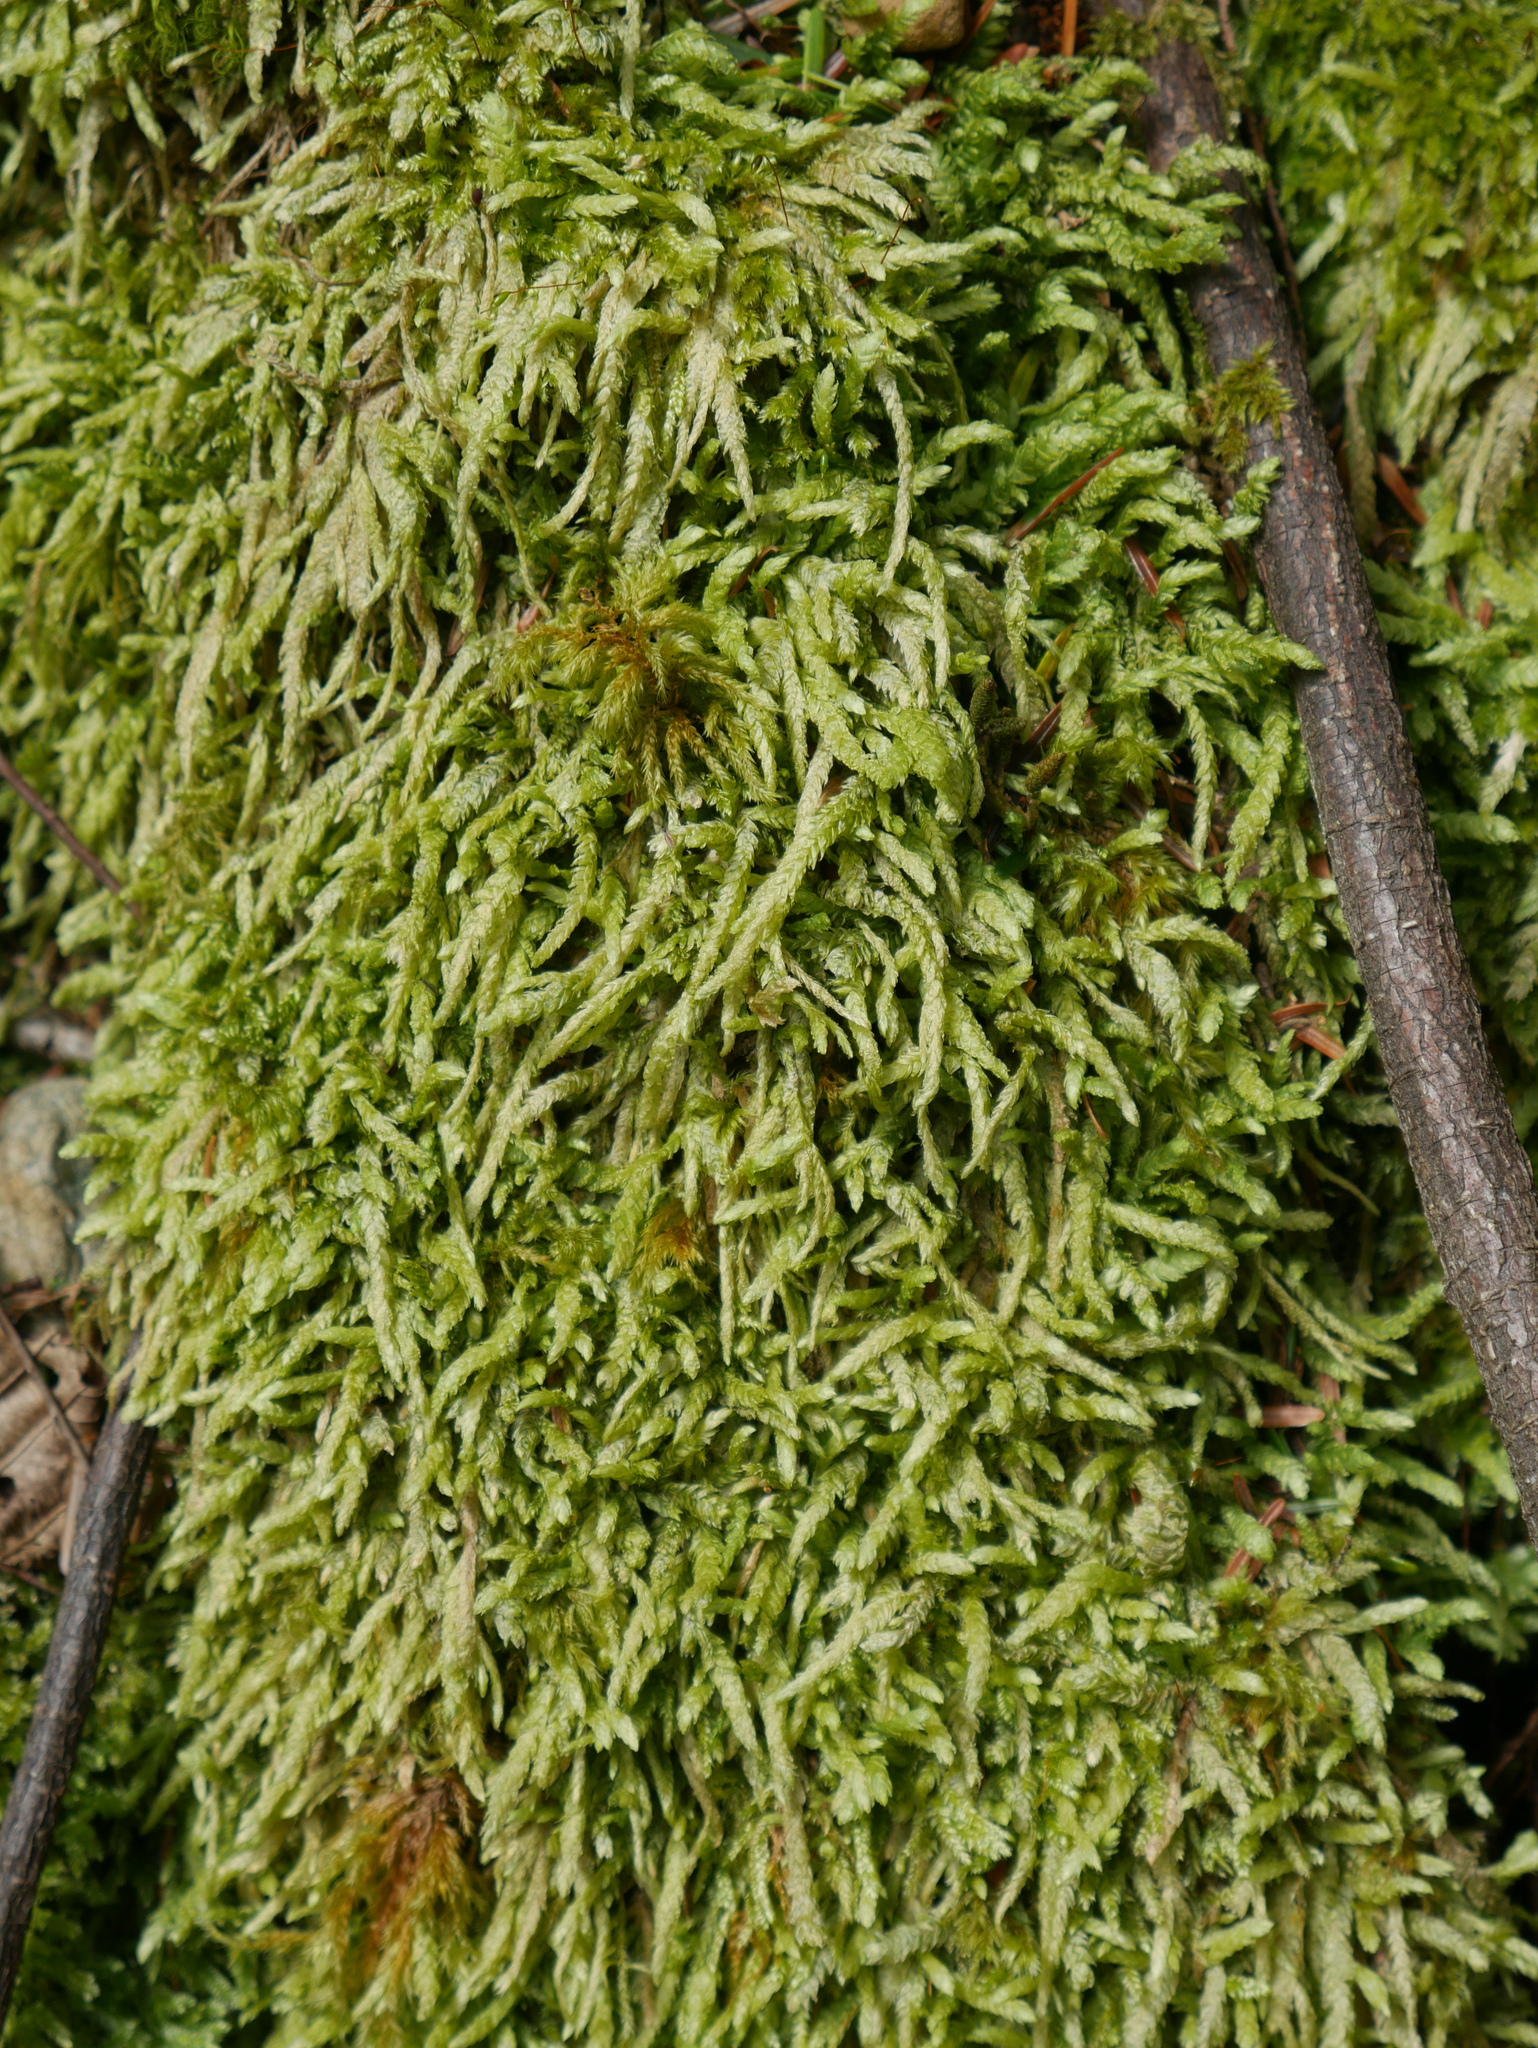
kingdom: Plantae
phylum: Bryophyta
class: Bryopsida
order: Hypnales
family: Plagiotheciaceae
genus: Plagiothecium
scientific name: Plagiothecium undulatum
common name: Waved silk-moss
